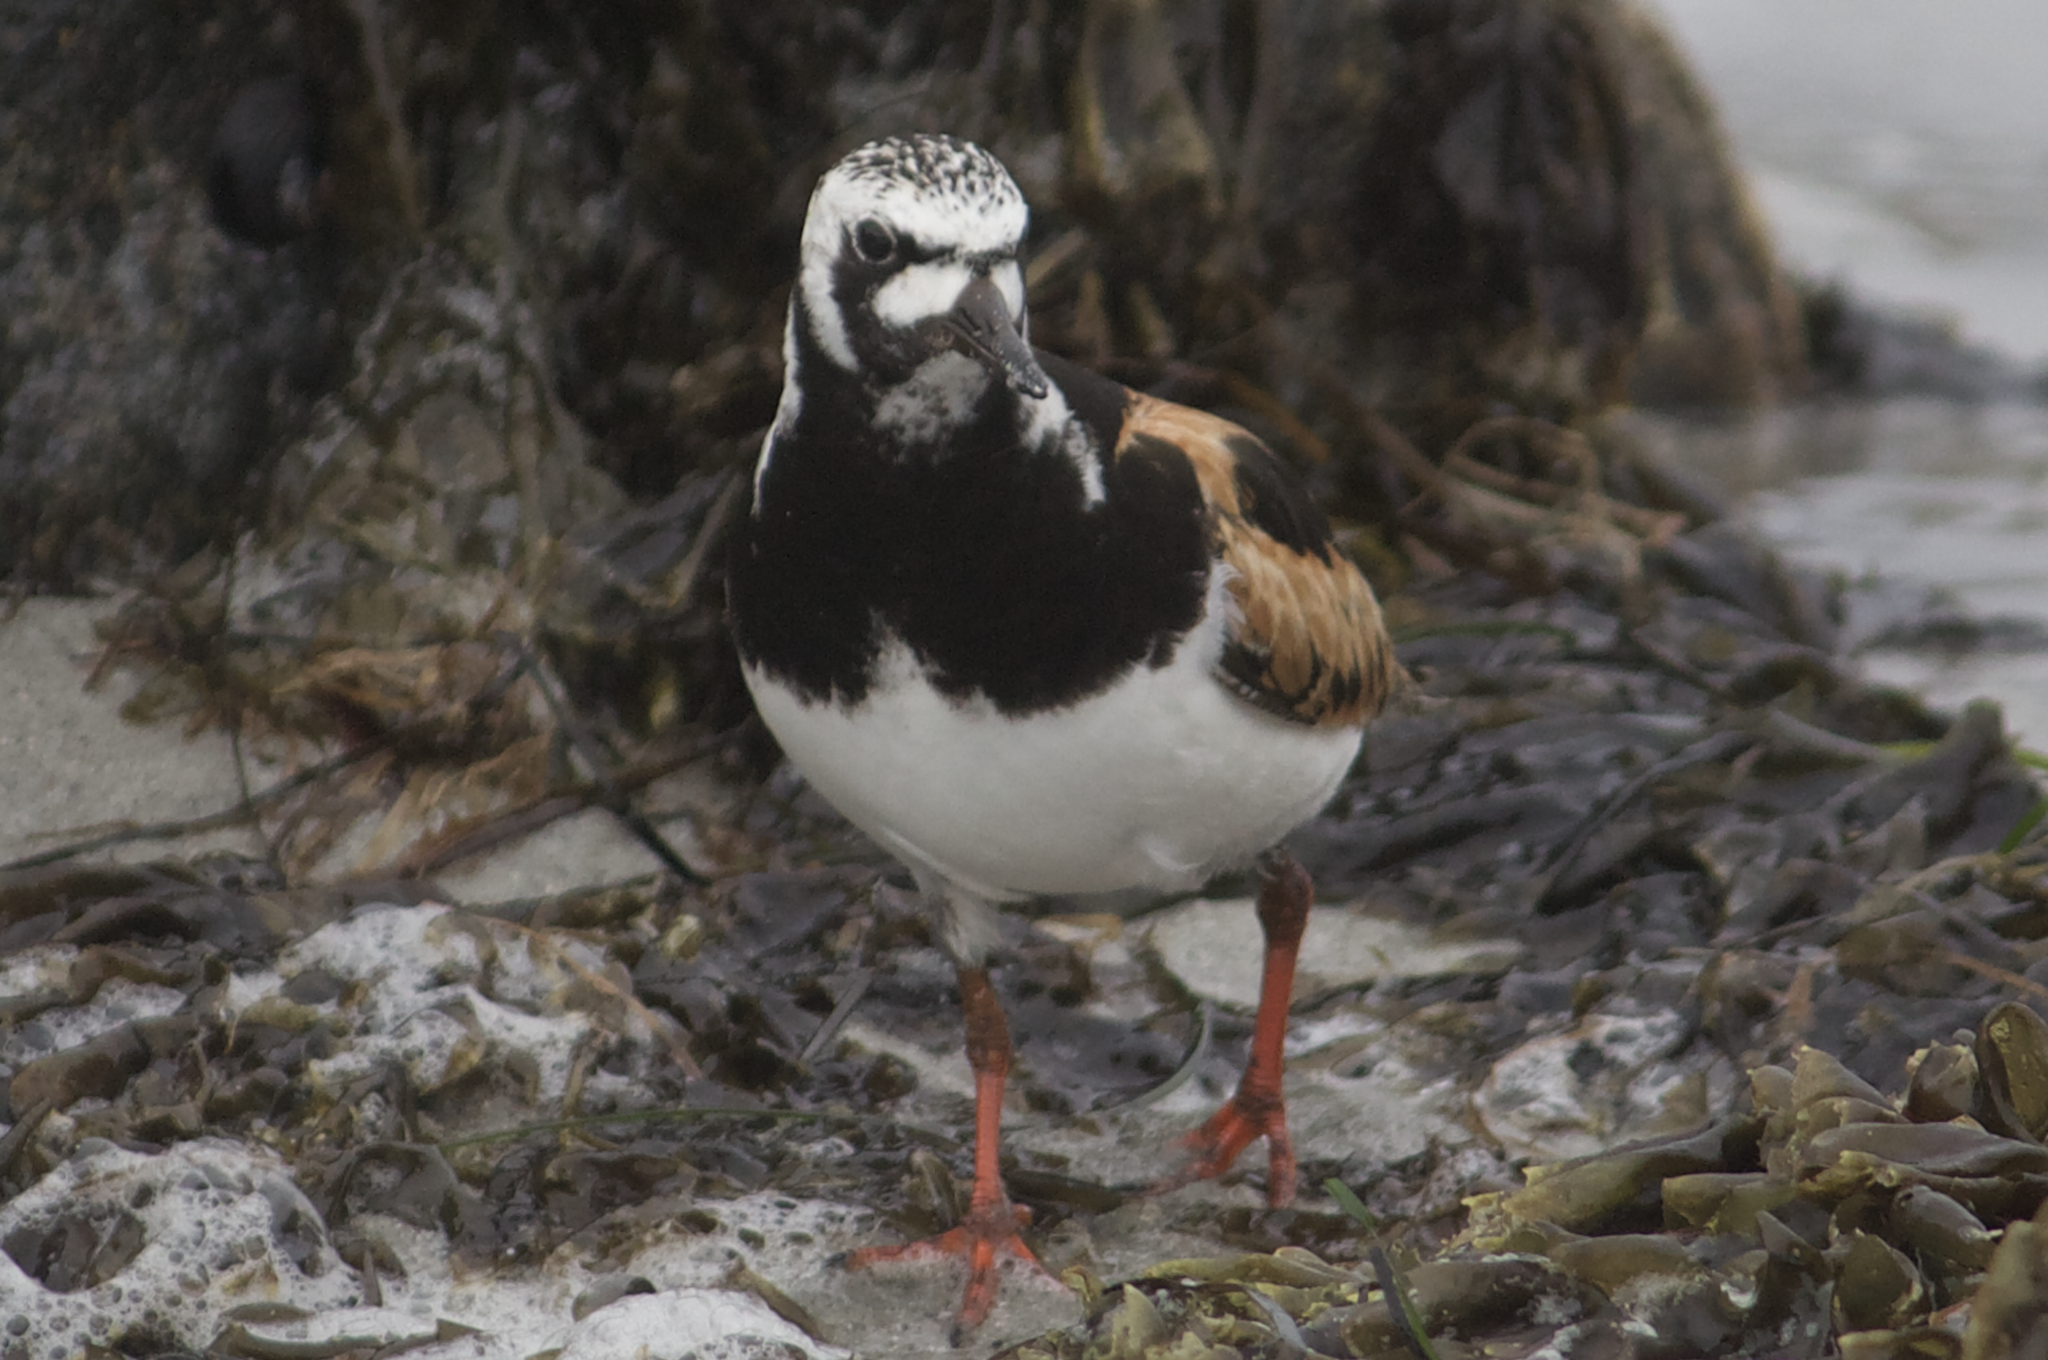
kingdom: Animalia
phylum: Chordata
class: Aves
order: Charadriiformes
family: Scolopacidae
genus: Arenaria
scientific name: Arenaria interpres
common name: Ruddy turnstone
